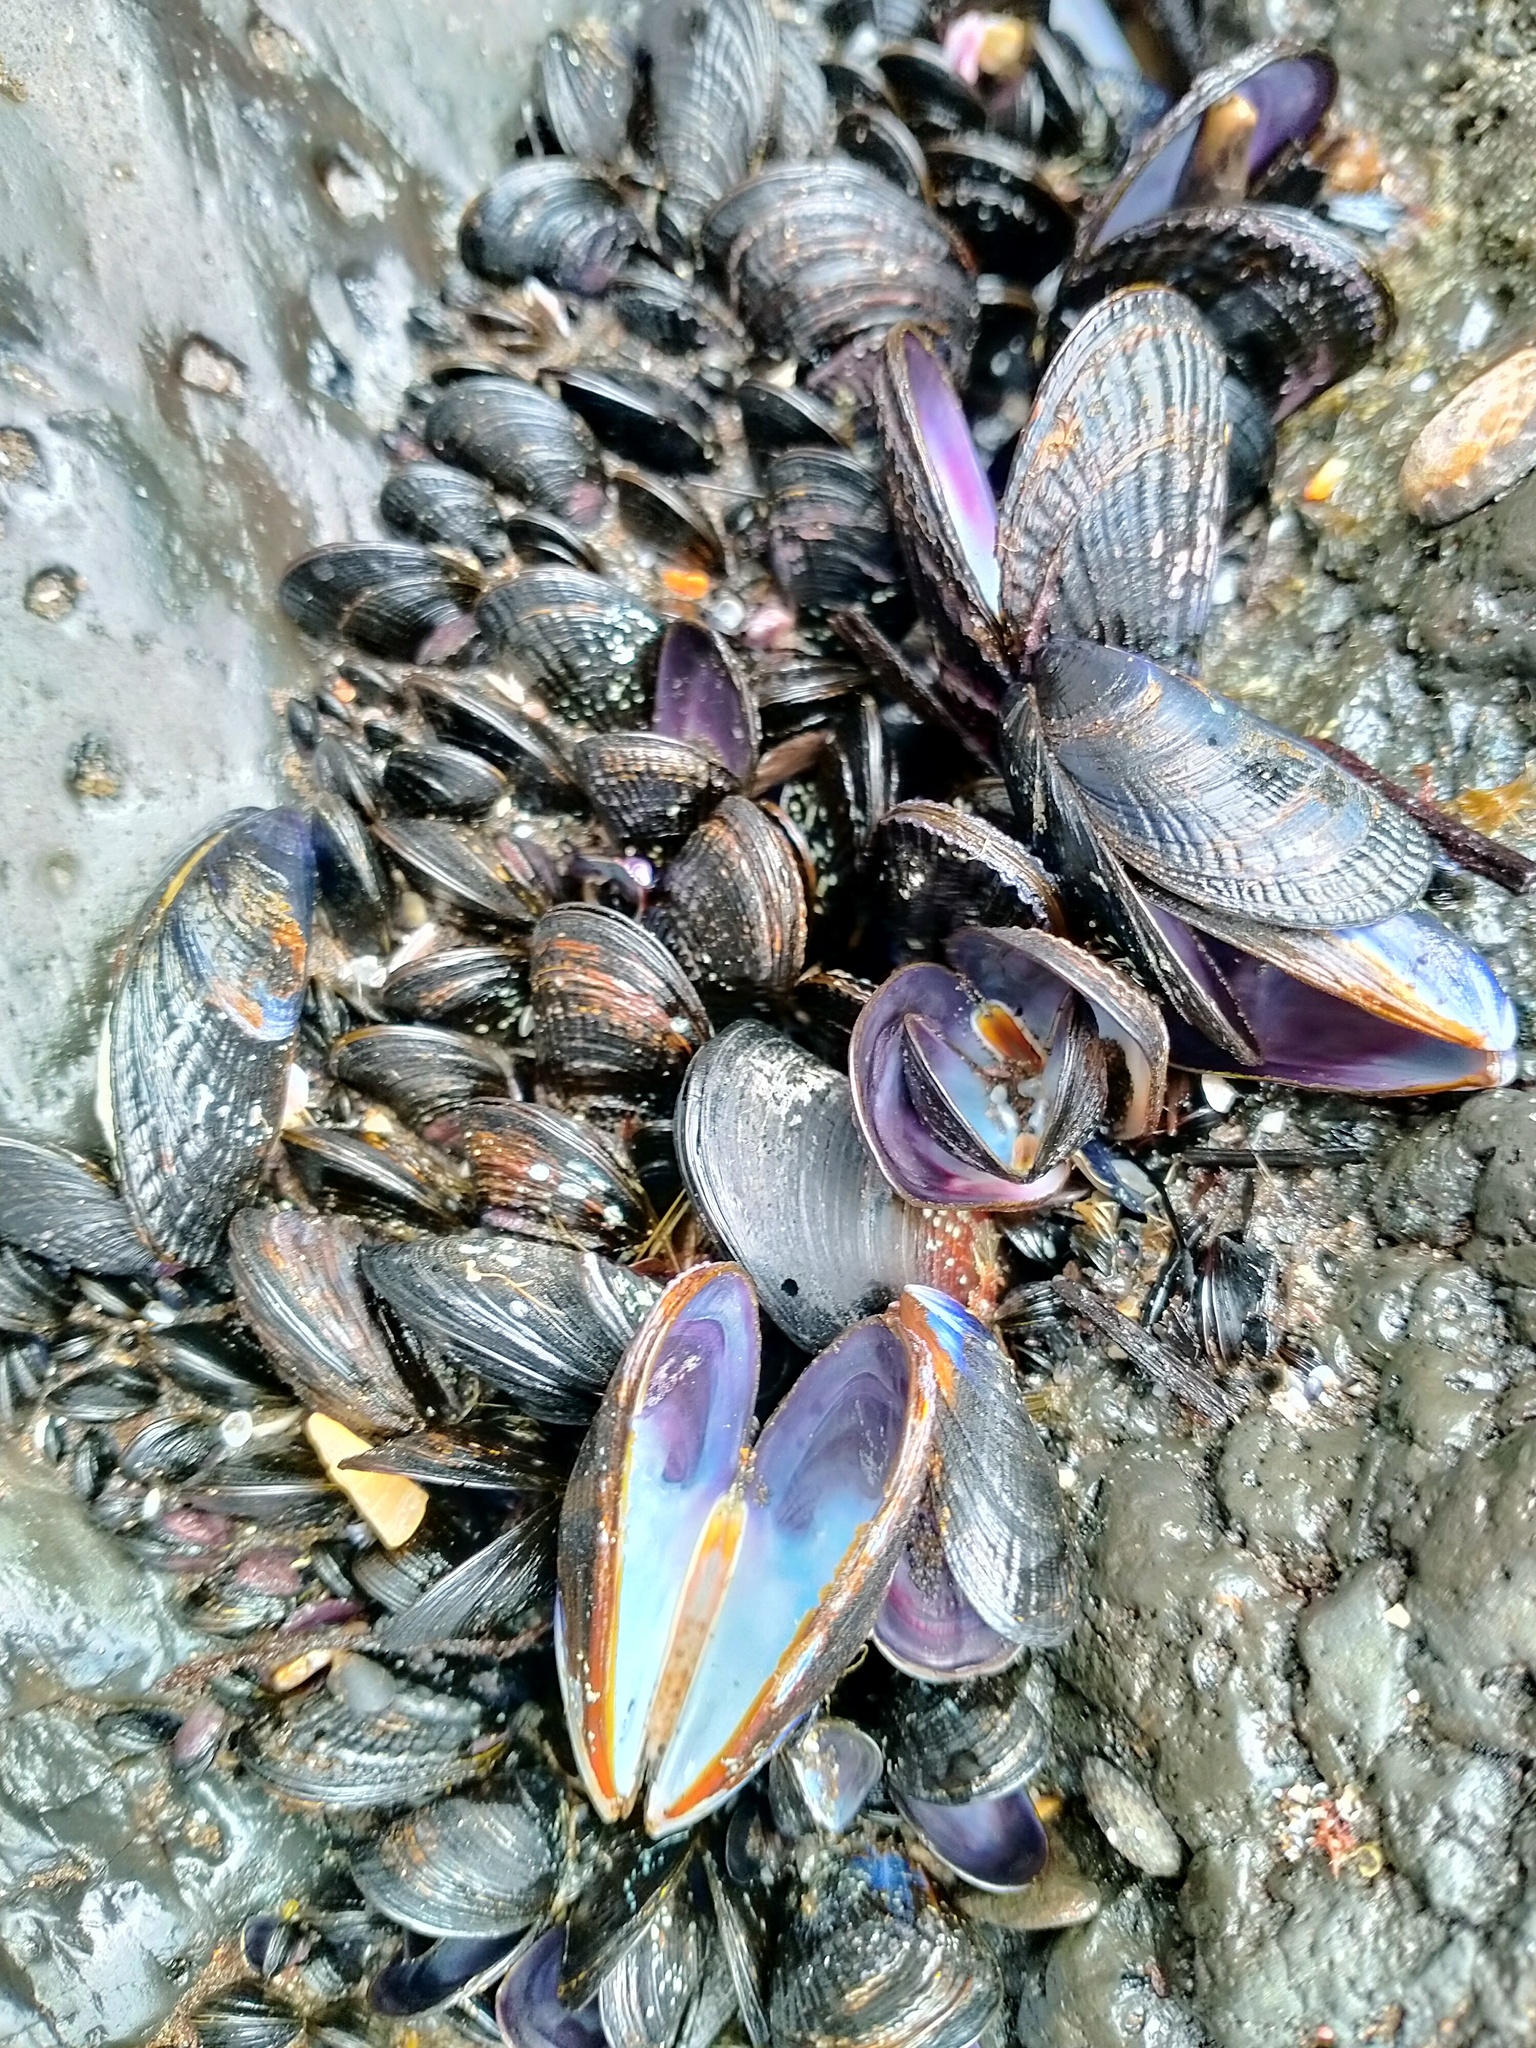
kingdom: Animalia
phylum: Mollusca
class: Bivalvia
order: Mytilida
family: Mytilidae
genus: Aulacomya
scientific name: Aulacomya maoriana
